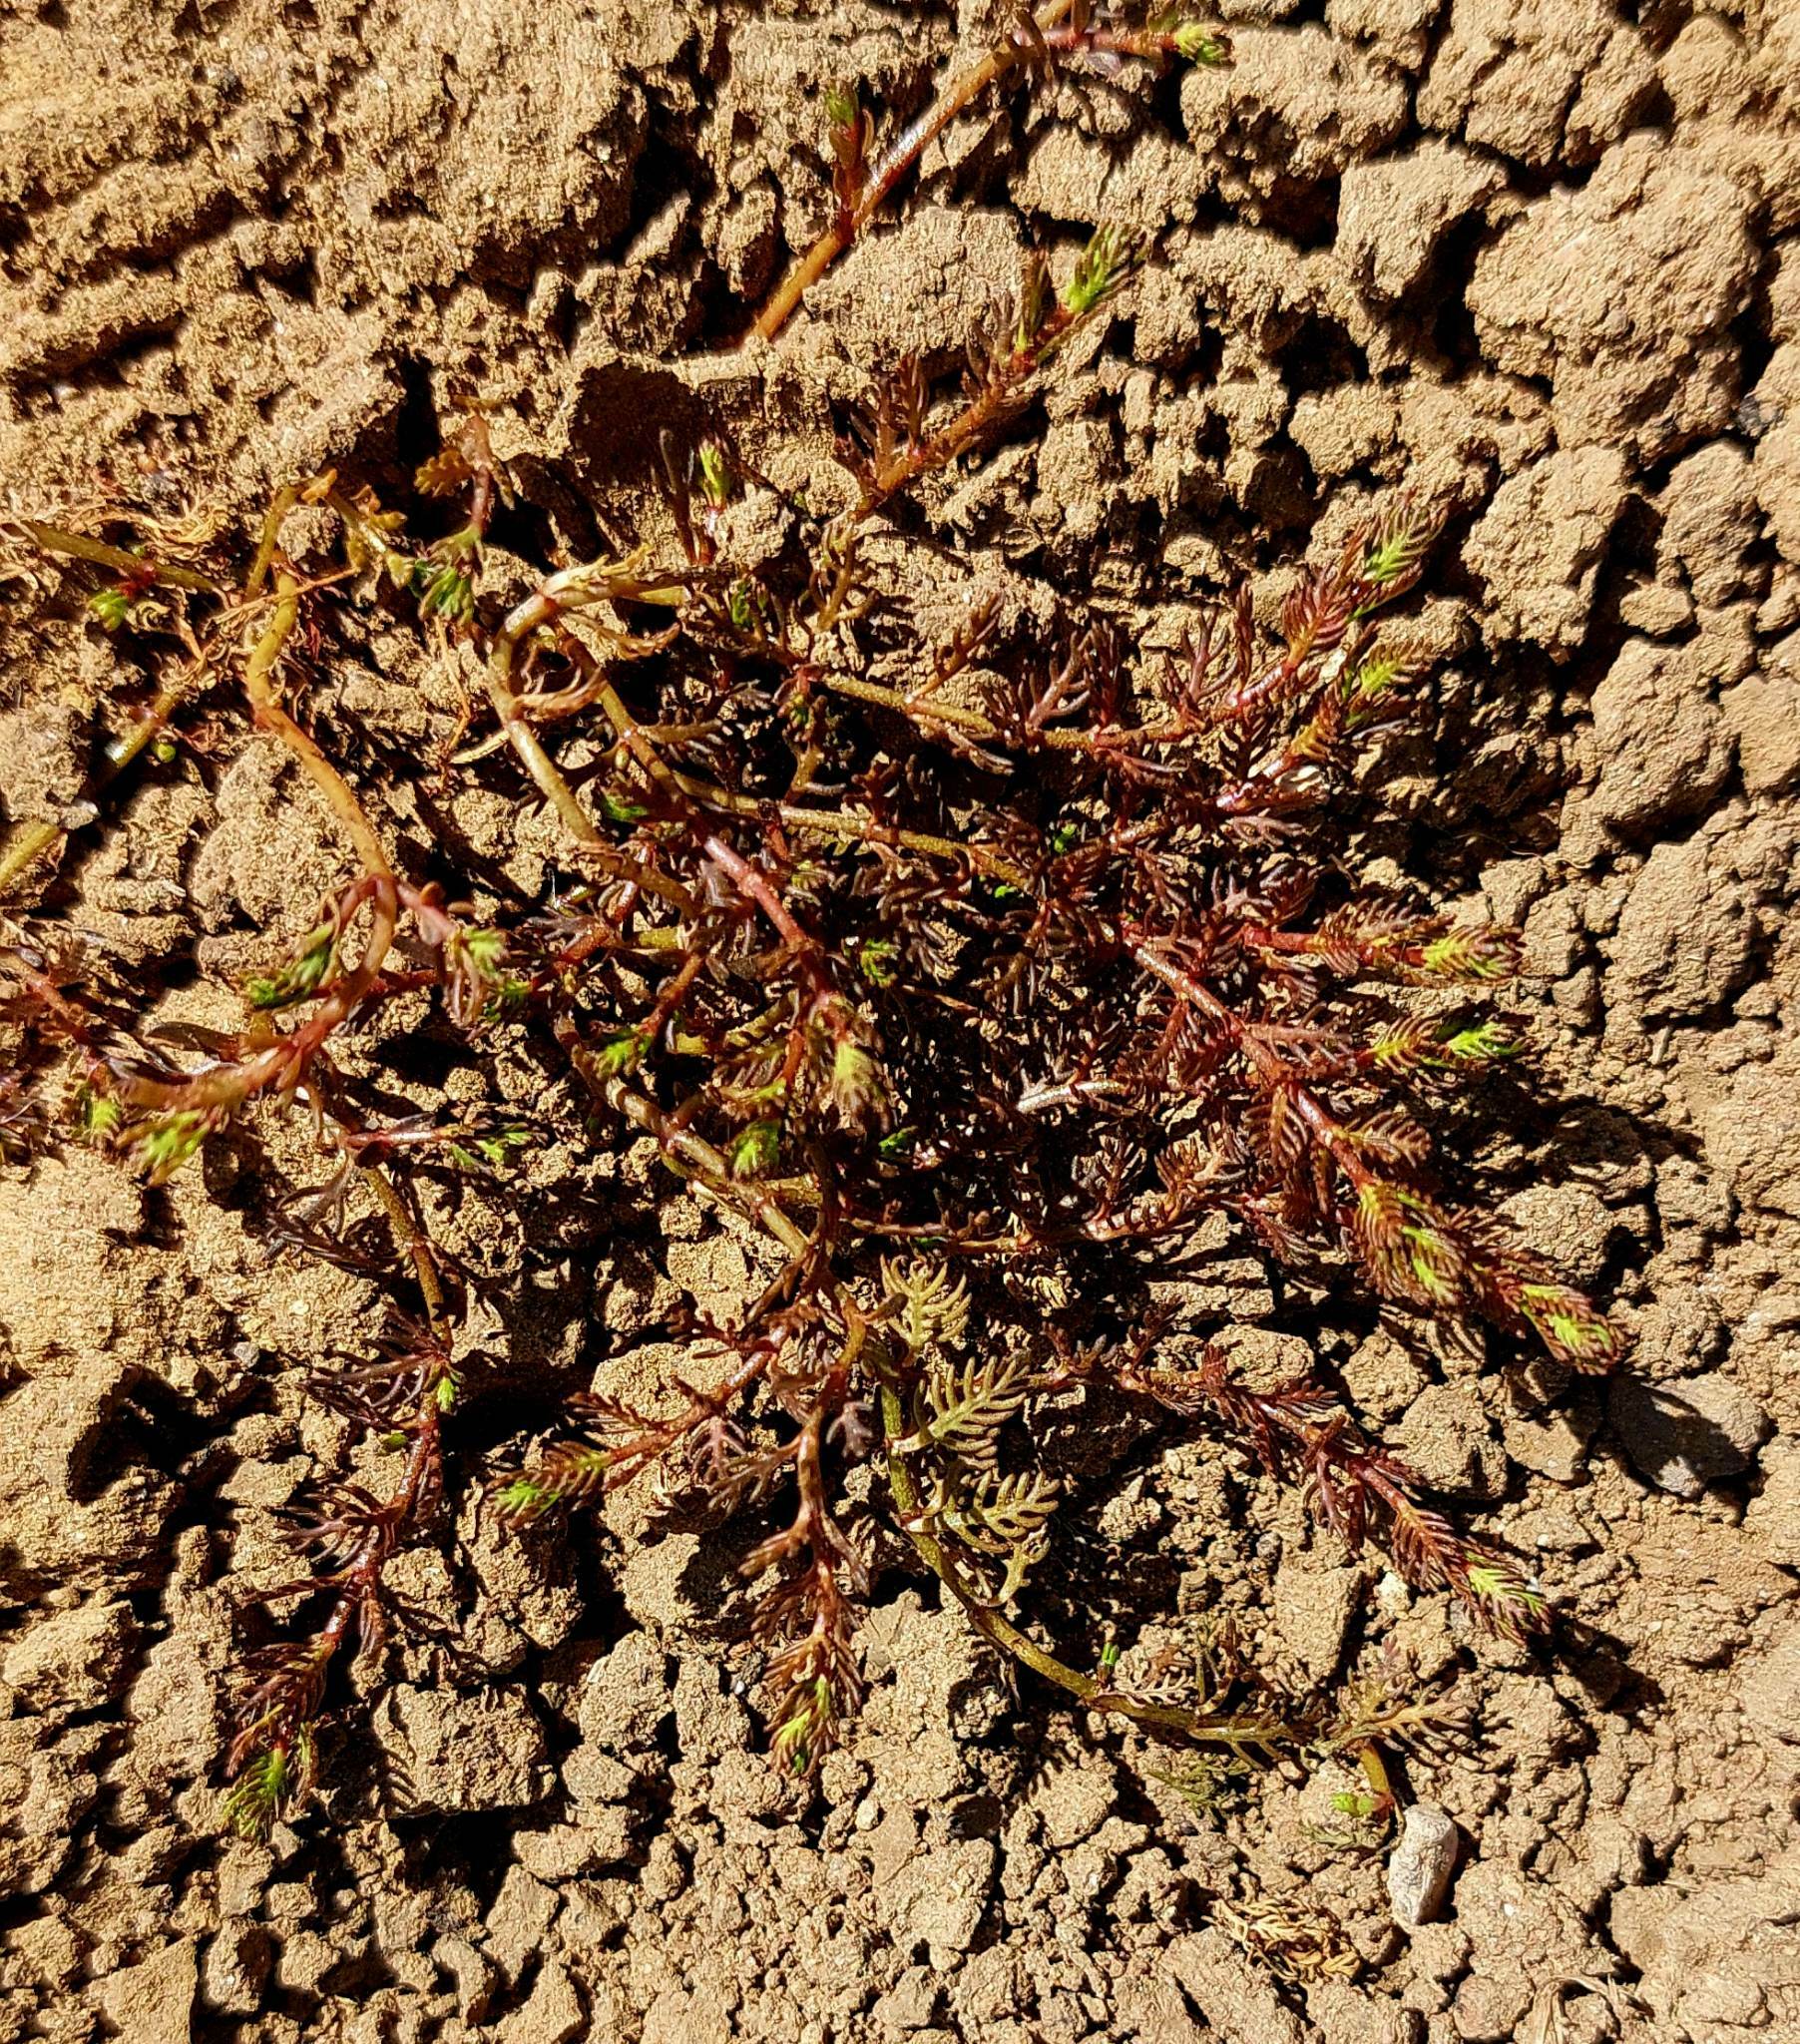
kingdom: Plantae
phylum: Tracheophyta
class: Magnoliopsida
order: Saxifragales
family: Haloragaceae
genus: Myriophyllum
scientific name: Myriophyllum triphyllum
